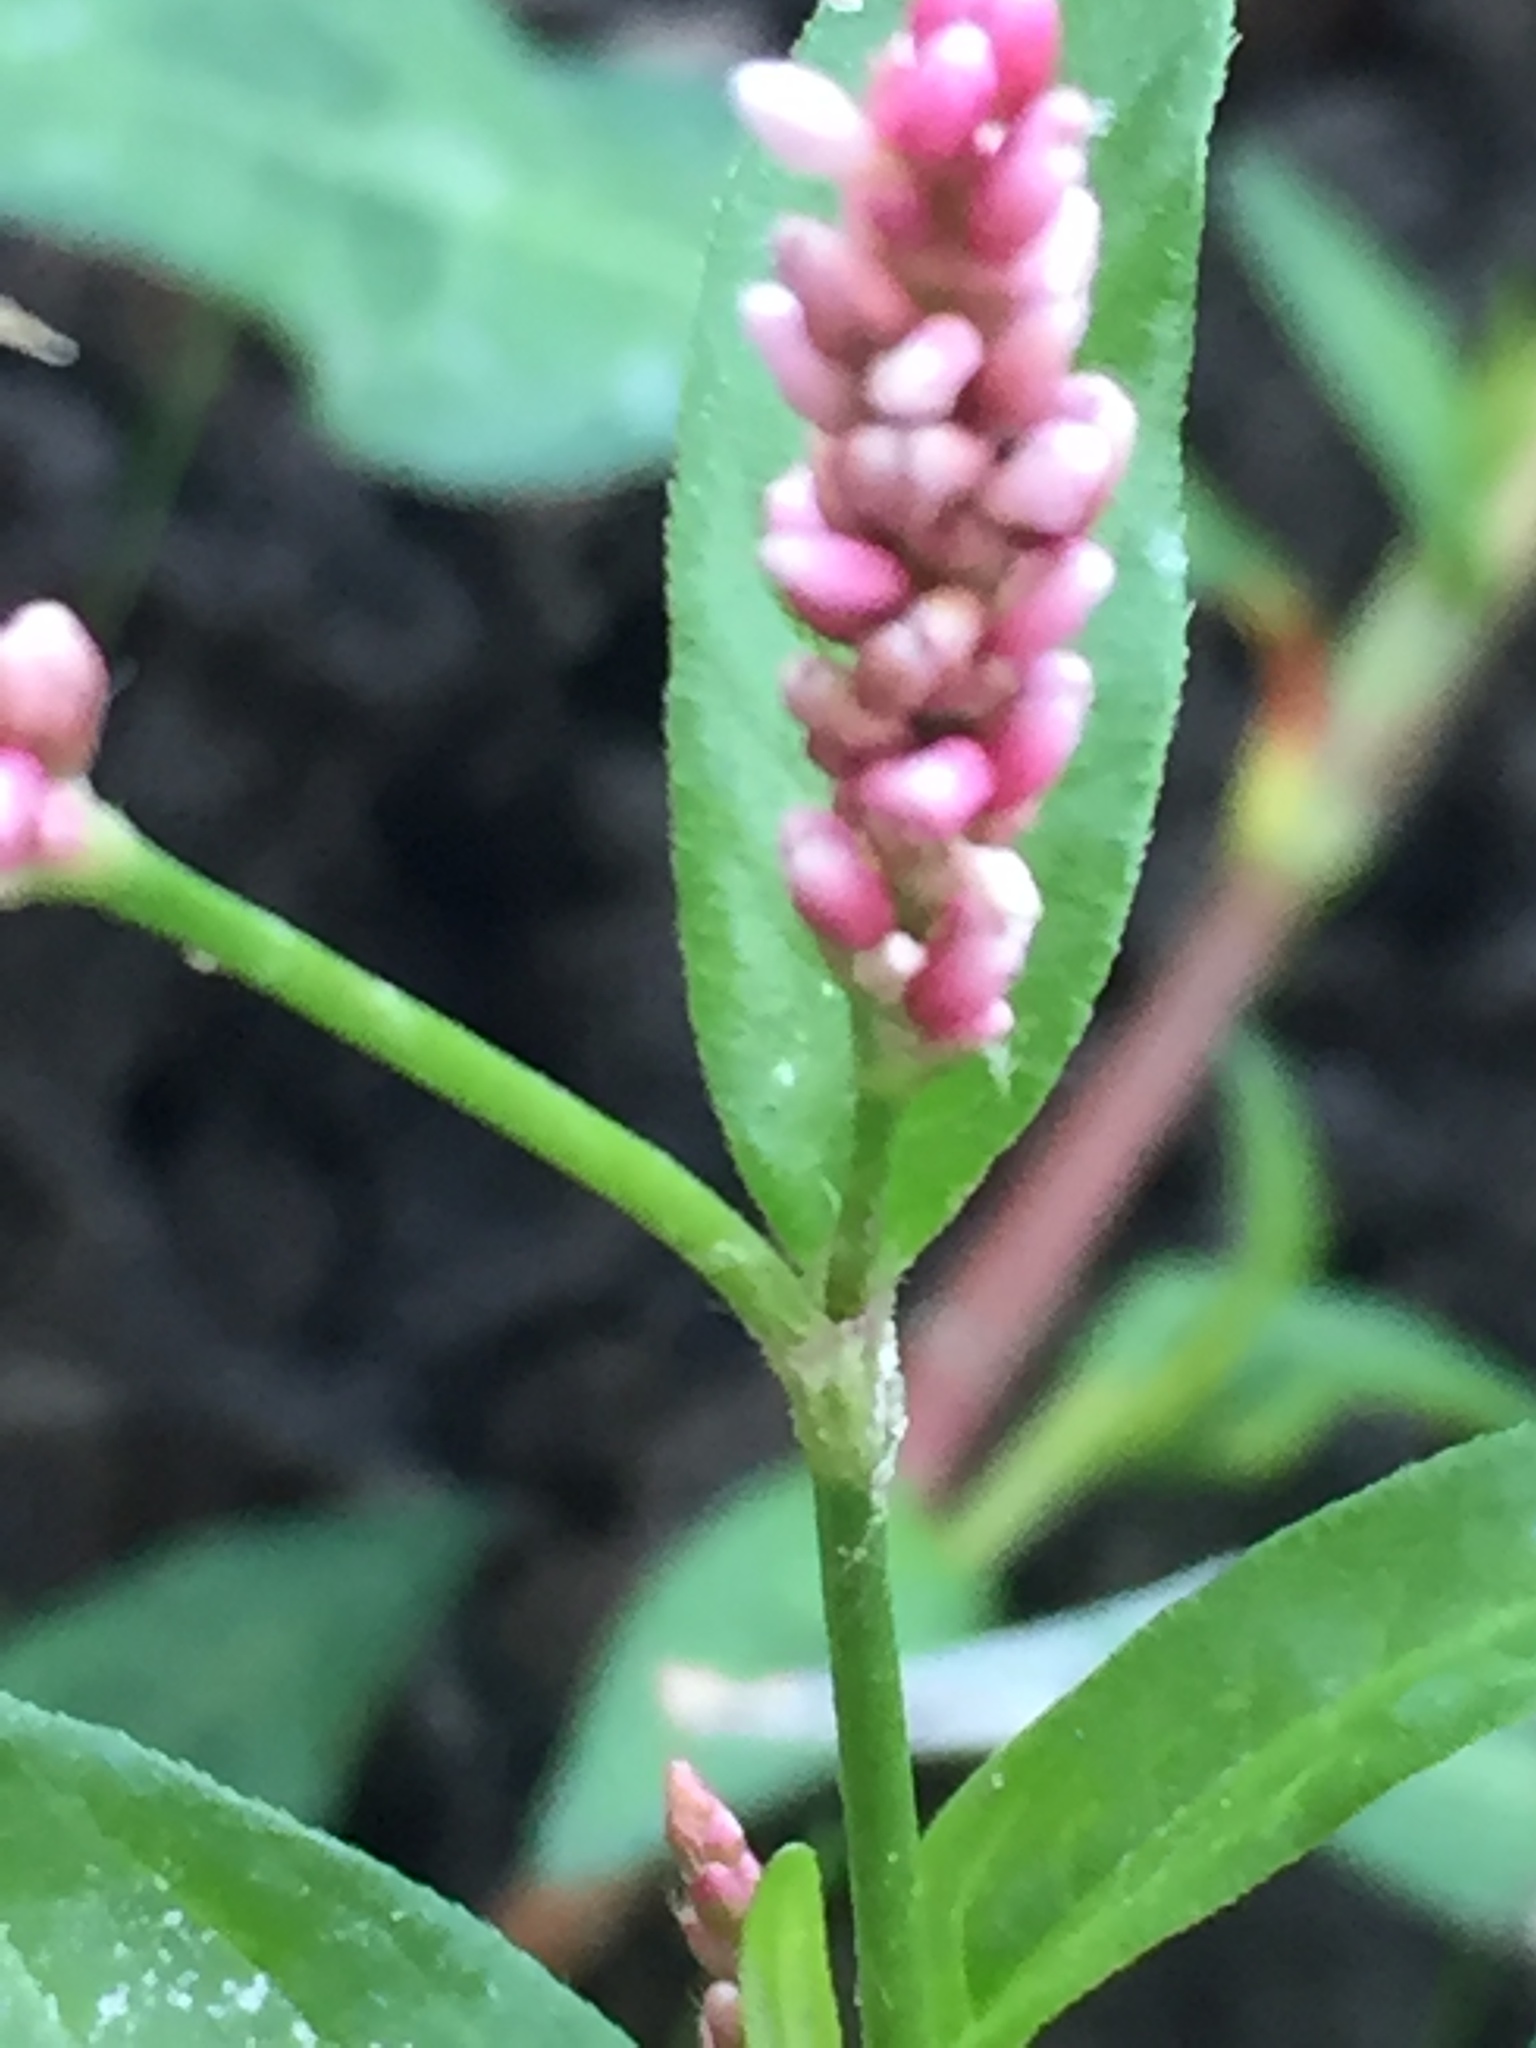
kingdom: Plantae
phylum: Tracheophyta
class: Magnoliopsida
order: Caryophyllales
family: Polygonaceae
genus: Persicaria
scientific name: Persicaria maculosa
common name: Redshank
